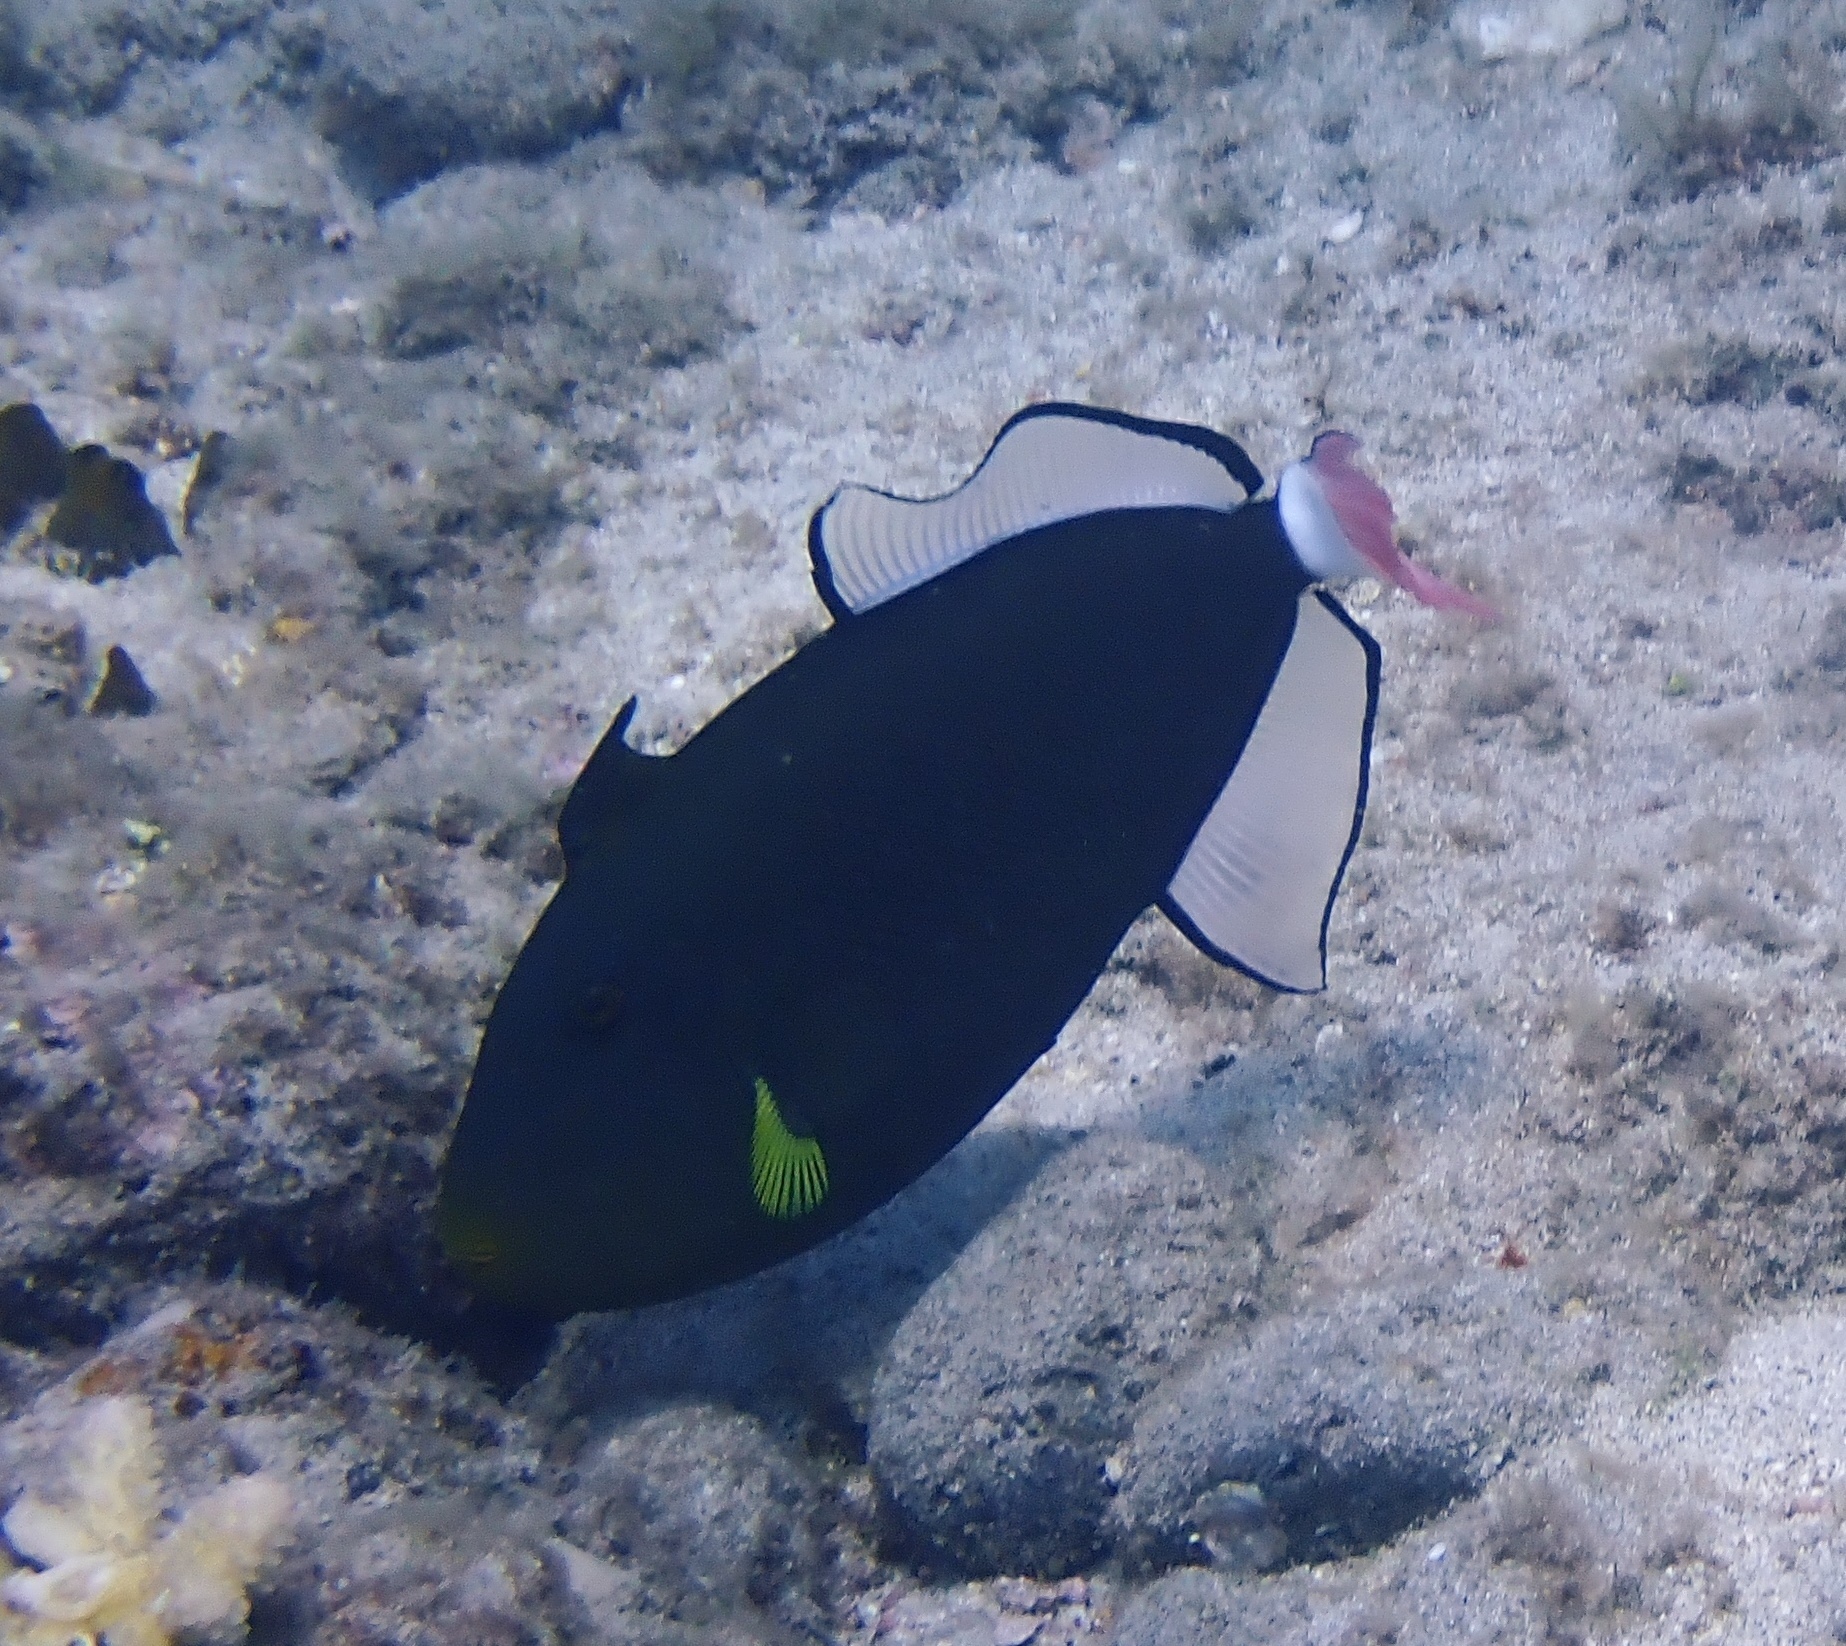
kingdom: Animalia
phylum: Chordata
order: Tetraodontiformes
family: Balistidae
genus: Melichthys
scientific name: Melichthys vidua
